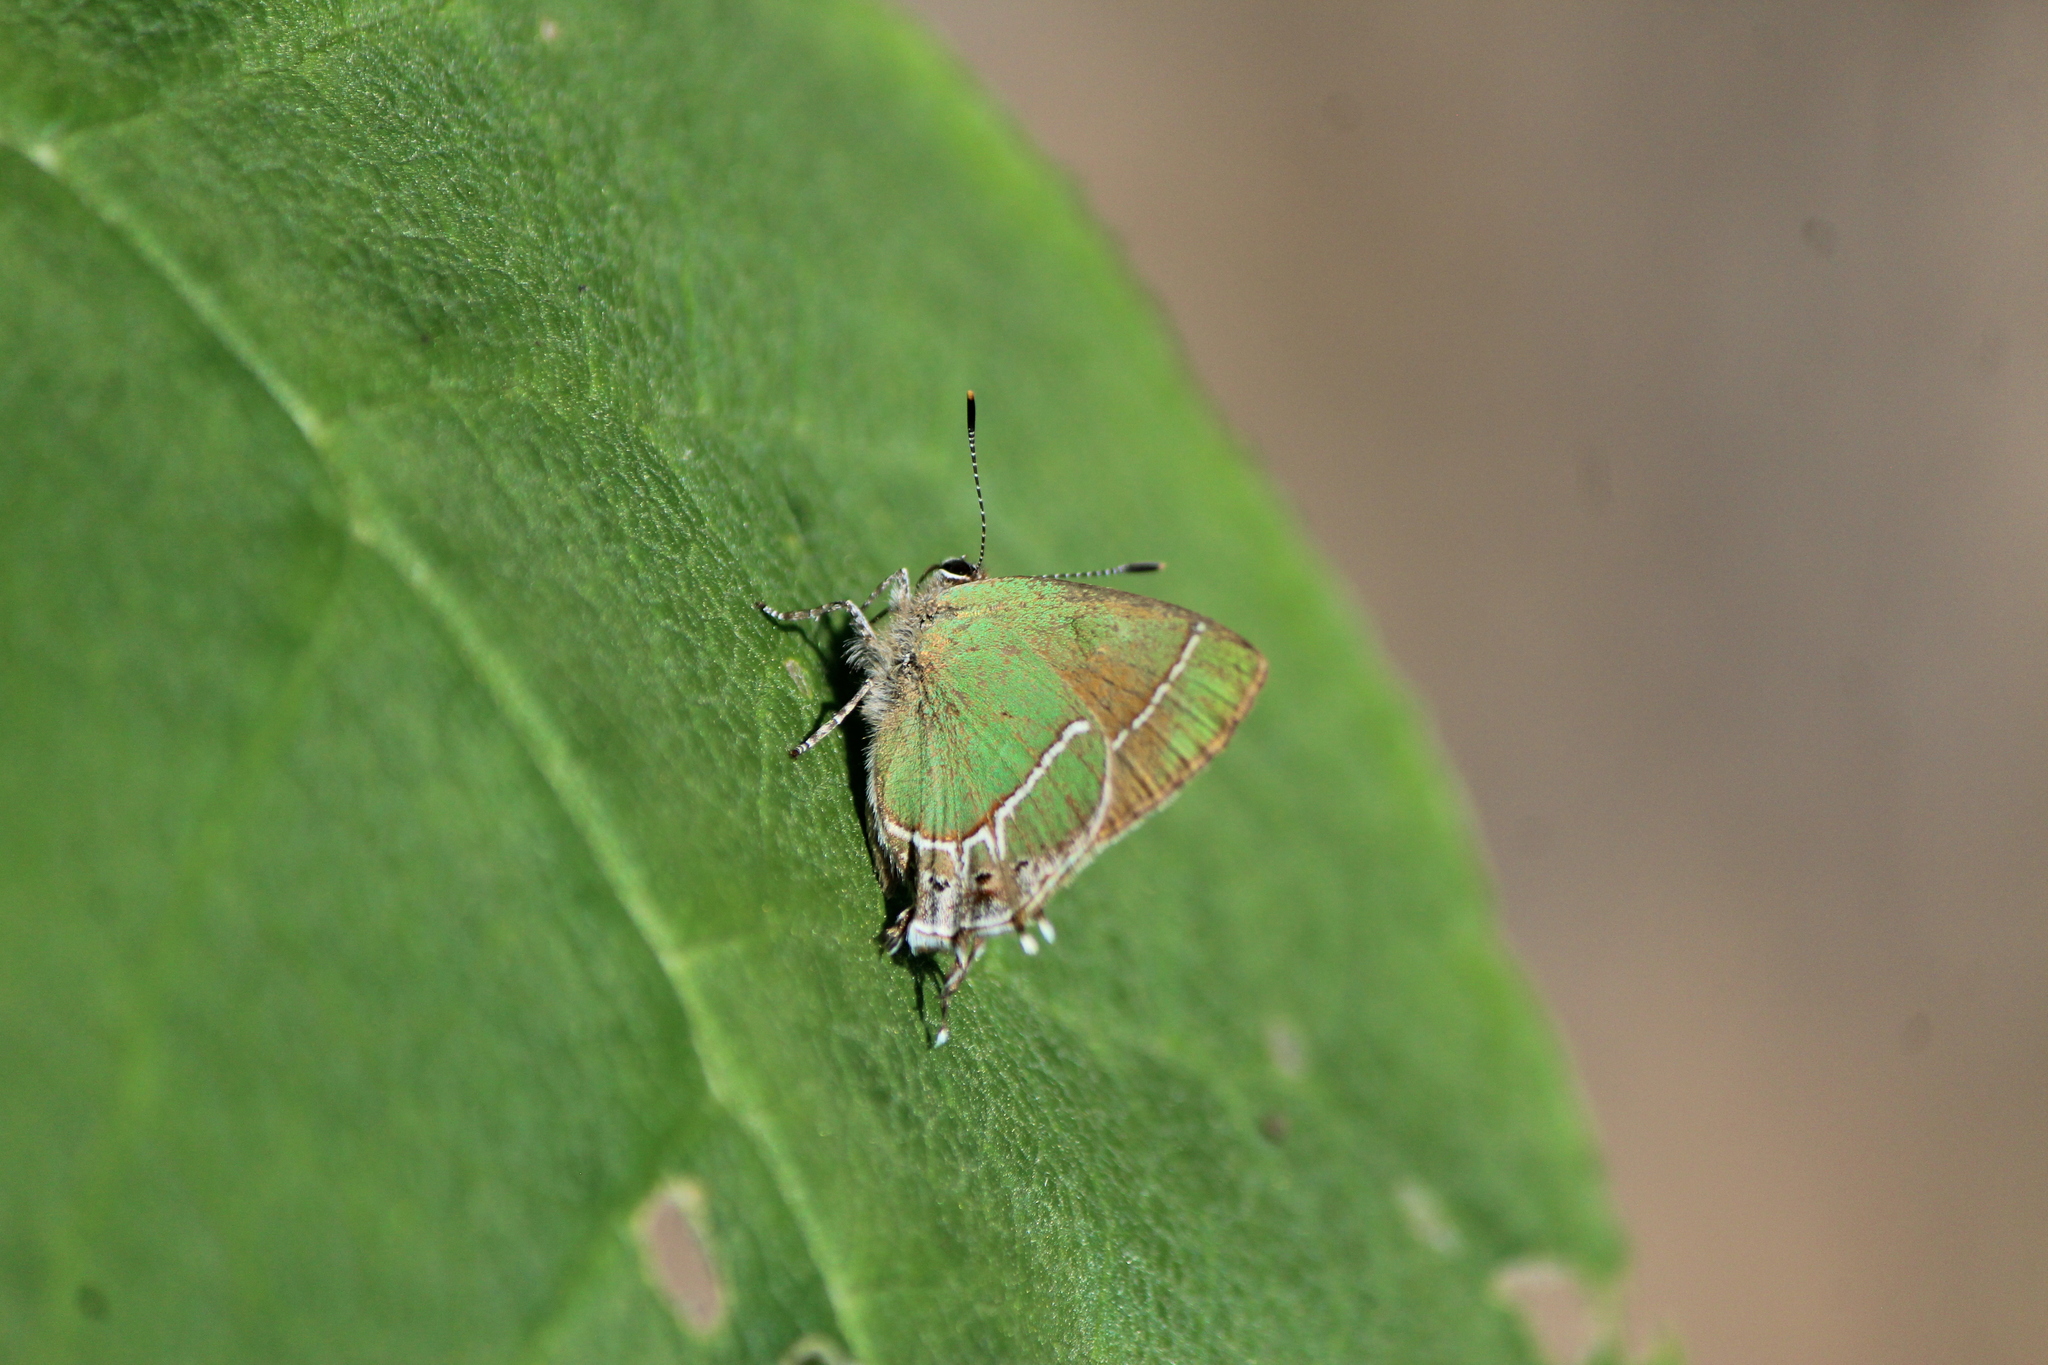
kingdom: Animalia
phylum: Arthropoda
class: Insecta
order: Lepidoptera
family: Lycaenidae
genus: Xamia
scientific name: Xamia xami
